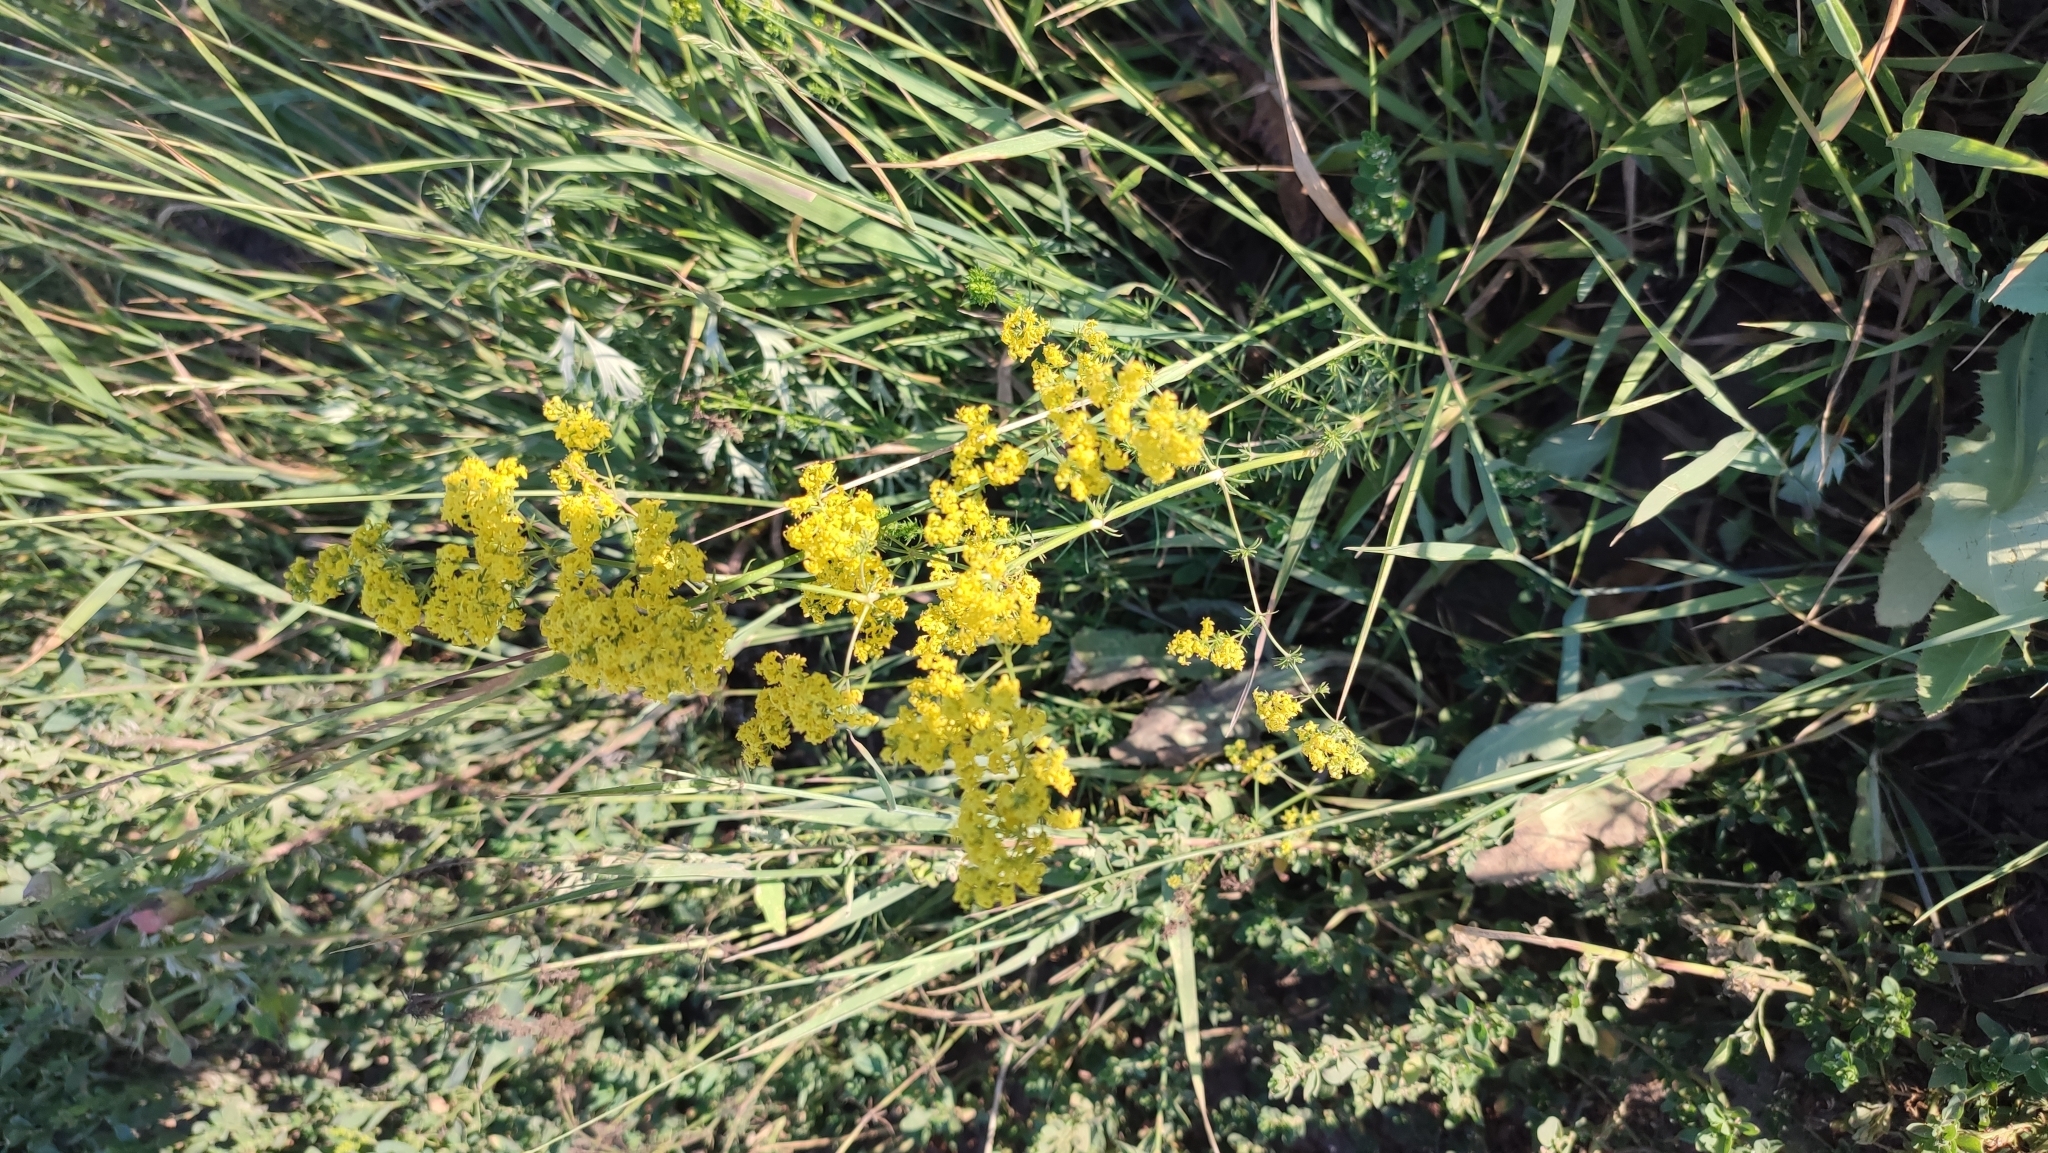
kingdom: Plantae
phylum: Tracheophyta
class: Magnoliopsida
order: Gentianales
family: Rubiaceae
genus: Galium
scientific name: Galium verum
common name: Lady's bedstraw
